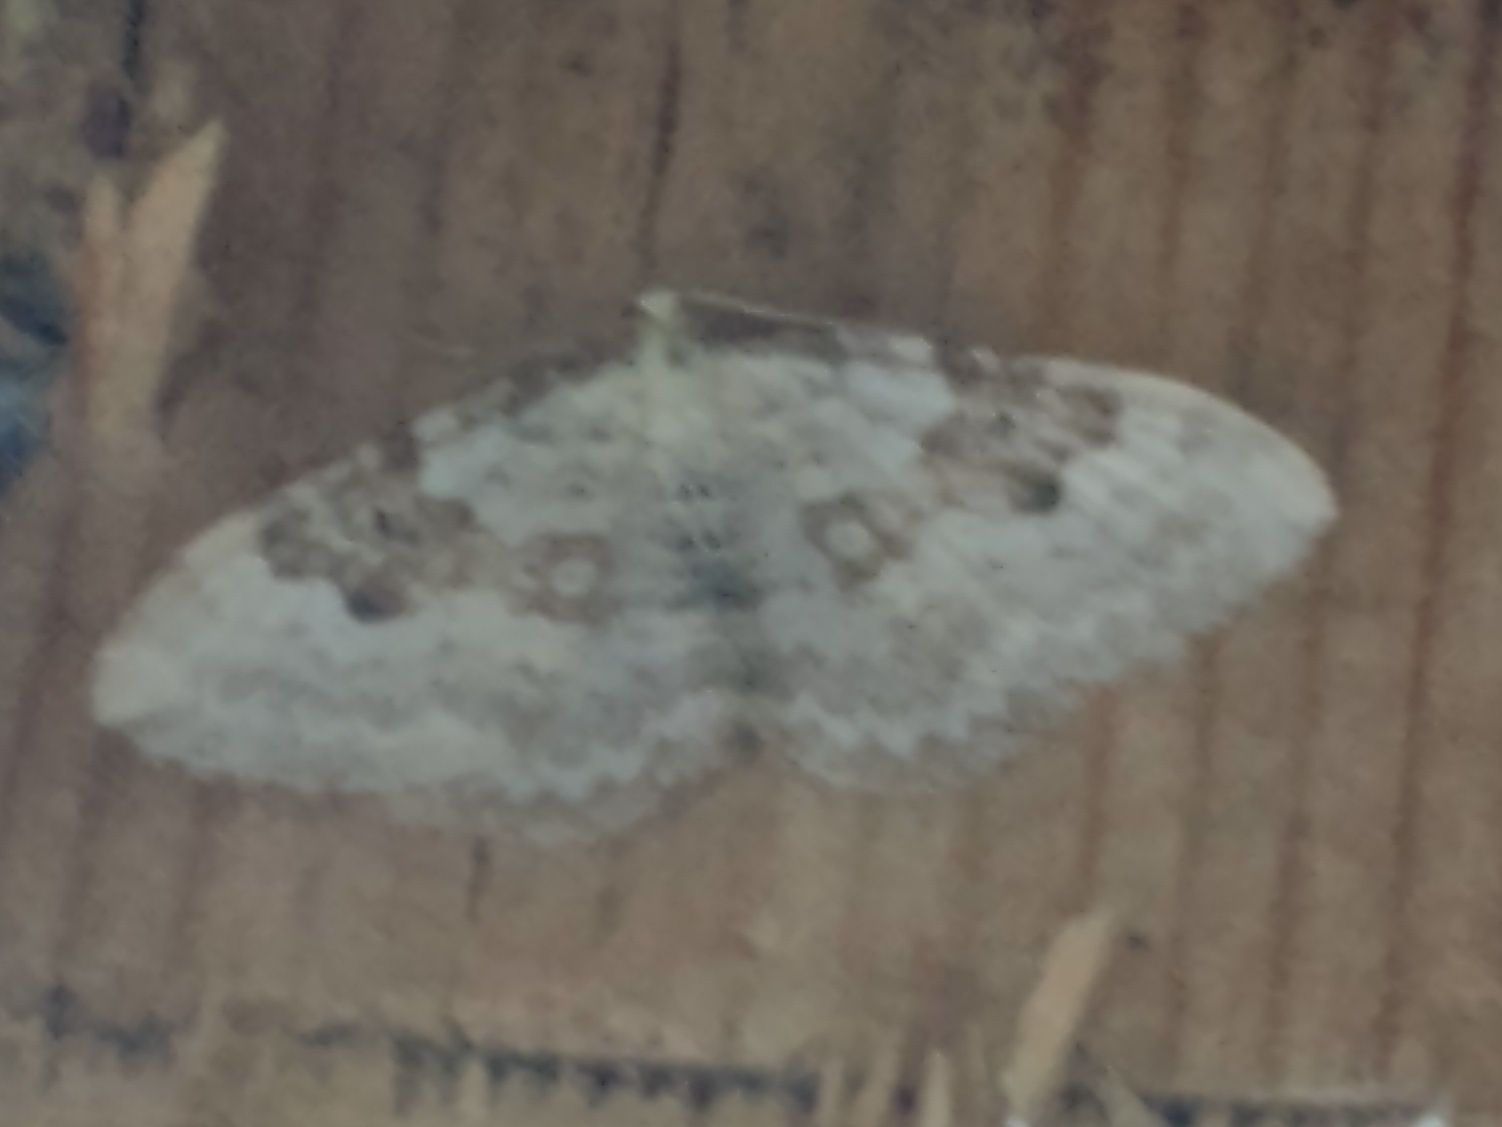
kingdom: Animalia
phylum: Arthropoda
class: Insecta
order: Lepidoptera
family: Geometridae
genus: Xanthorhoe
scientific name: Xanthorhoe montanata
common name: Silver-ground carpet
